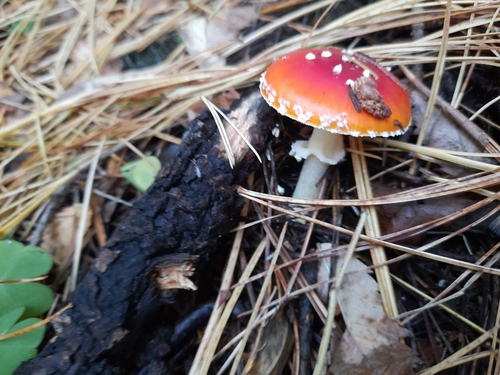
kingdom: Fungi
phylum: Basidiomycota
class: Agaricomycetes
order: Agaricales
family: Amanitaceae
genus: Amanita
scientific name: Amanita muscaria
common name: Fly agaric
